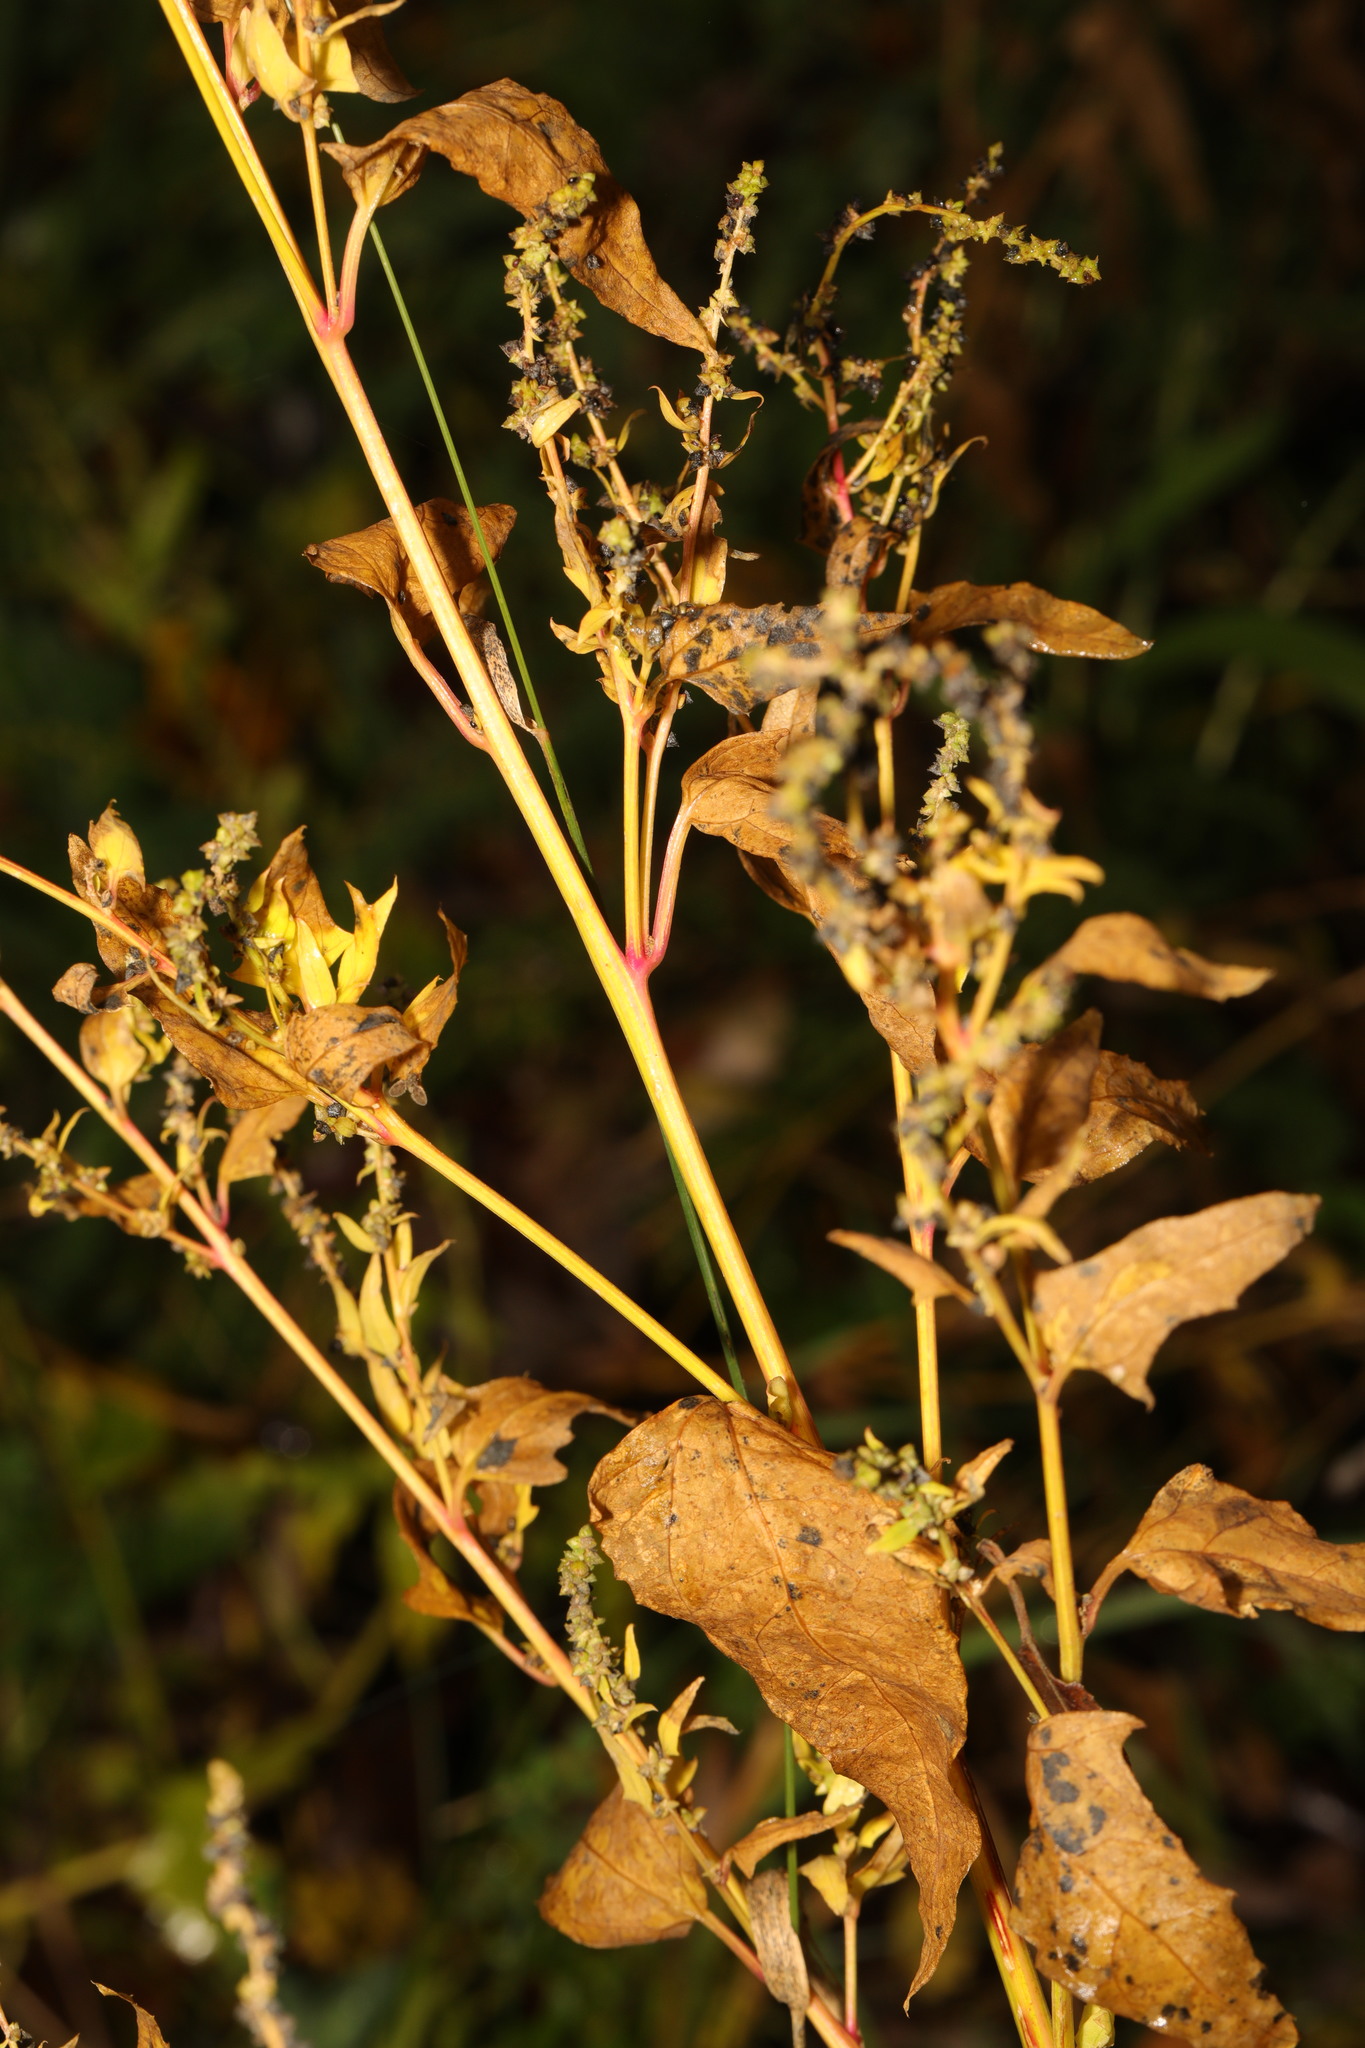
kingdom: Plantae
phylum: Tracheophyta
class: Magnoliopsida
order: Caryophyllales
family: Amaranthaceae
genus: Atriplex
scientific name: Atriplex prostrata
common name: Spear-leaved orache
